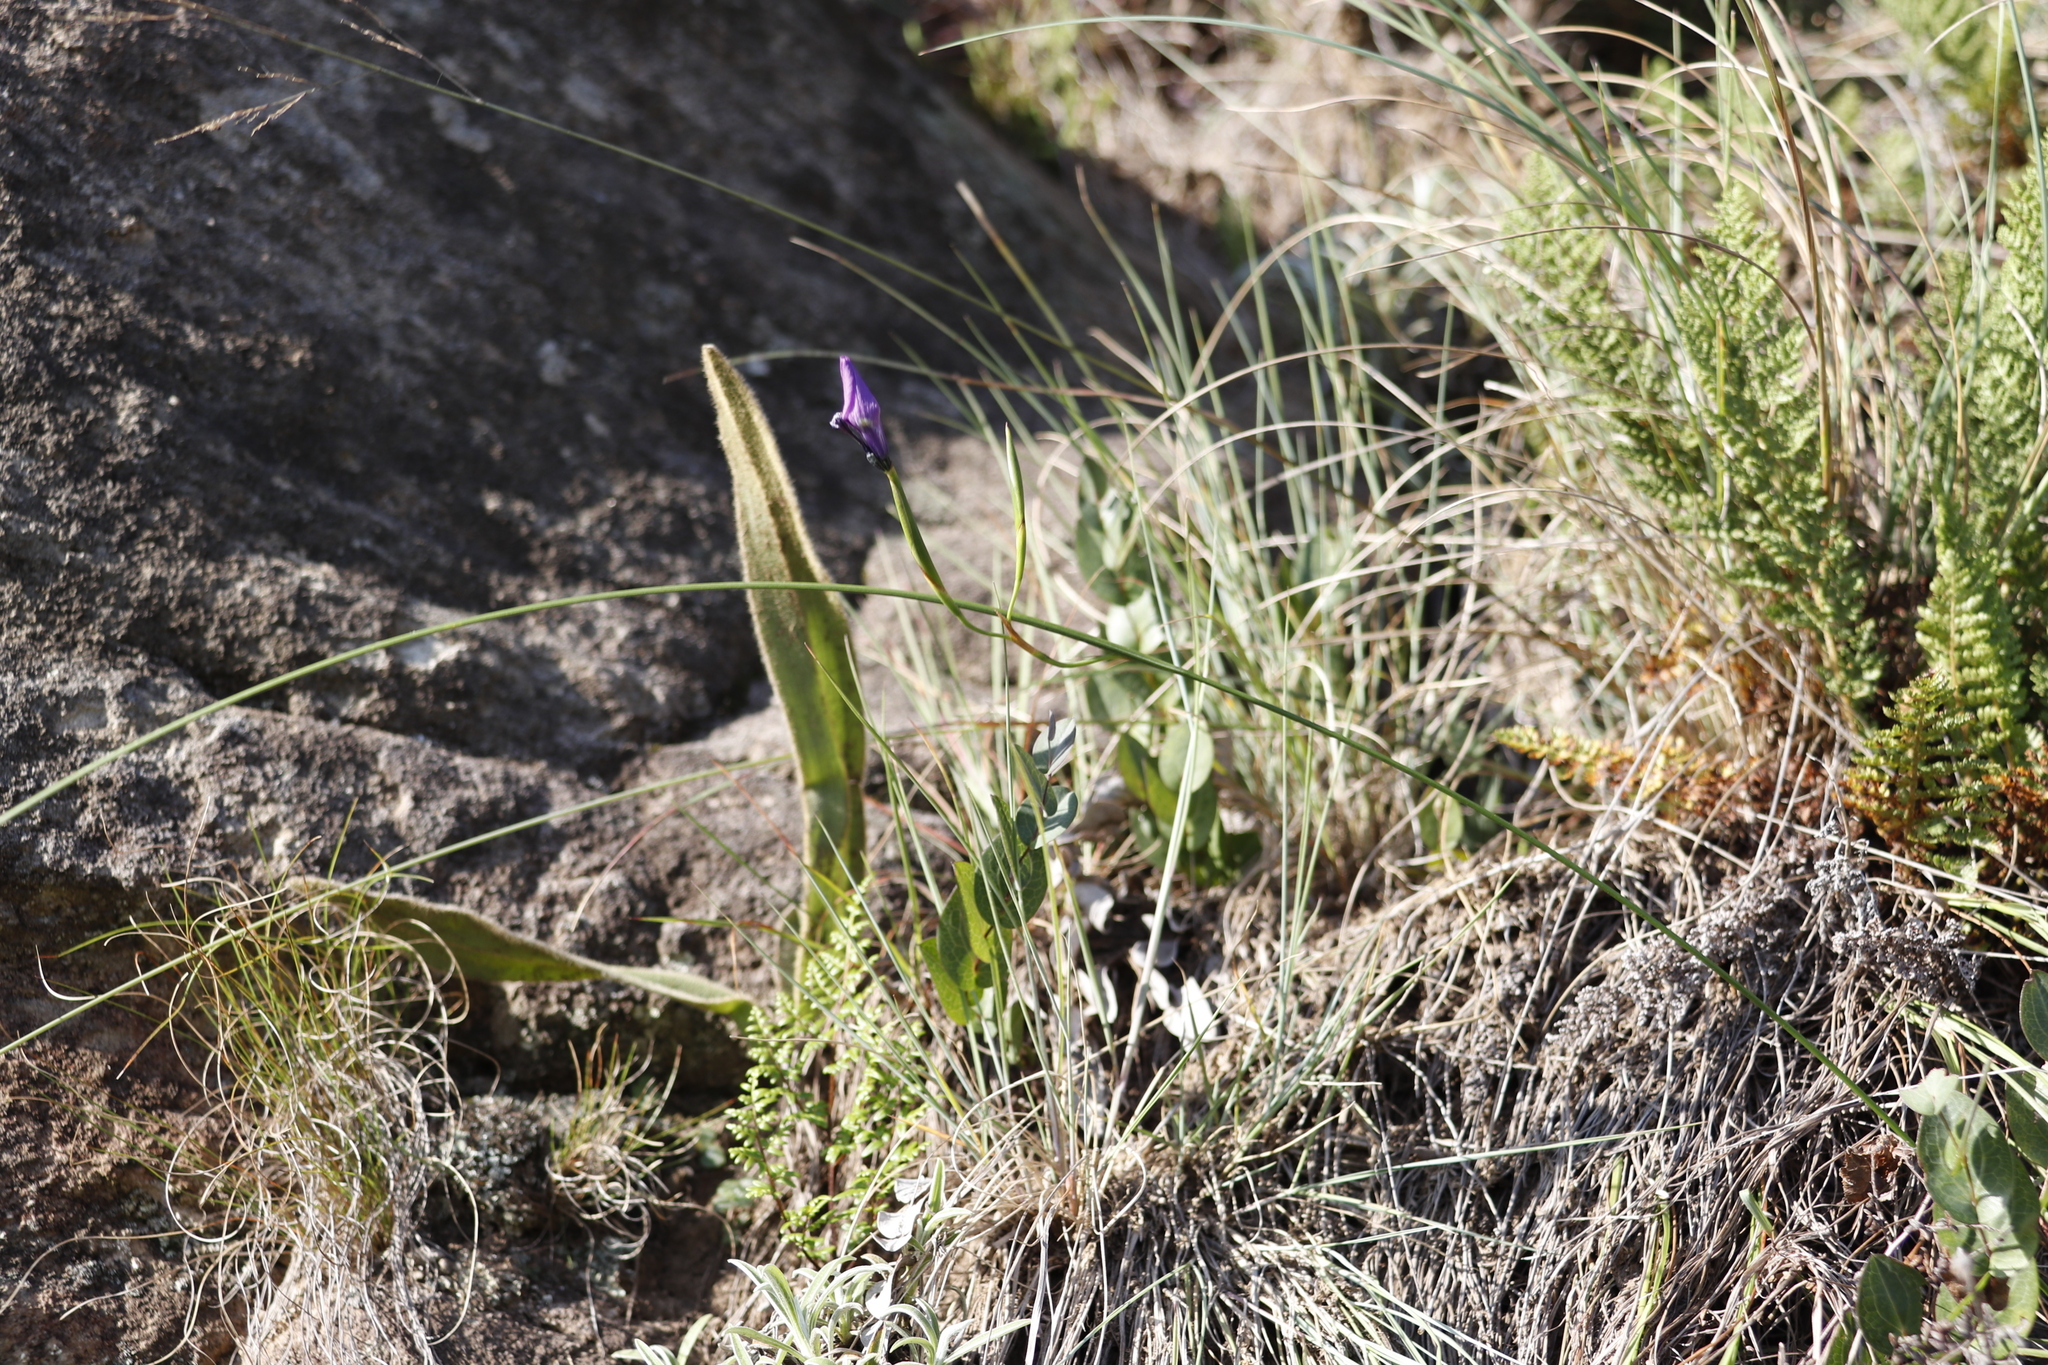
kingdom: Plantae
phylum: Tracheophyta
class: Liliopsida
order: Asparagales
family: Iridaceae
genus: Moraea
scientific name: Moraea inclinata
